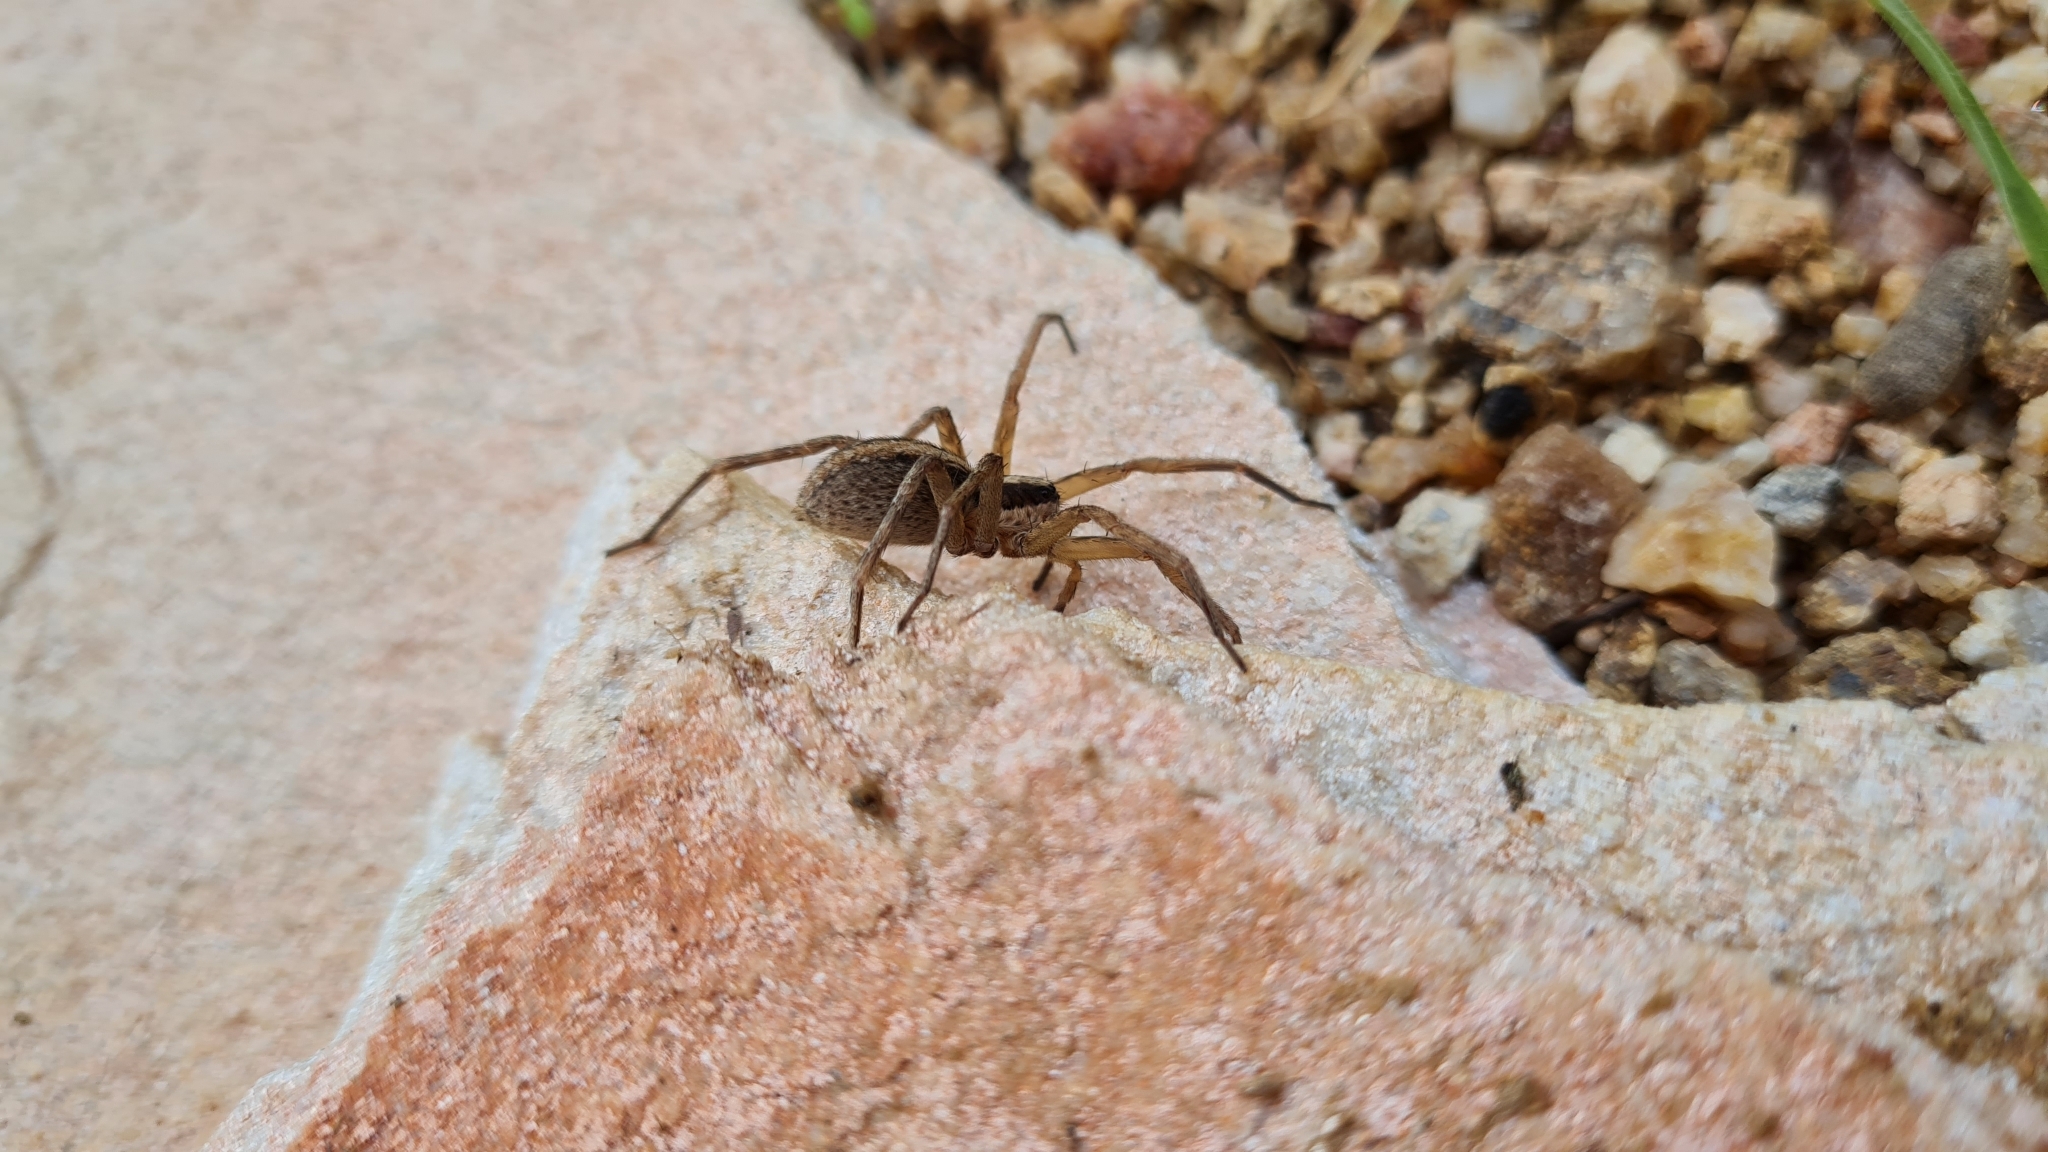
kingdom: Animalia
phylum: Arthropoda
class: Arachnida
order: Araneae
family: Xenoctenidae
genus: Xenoctenus
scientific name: Xenoctenus
